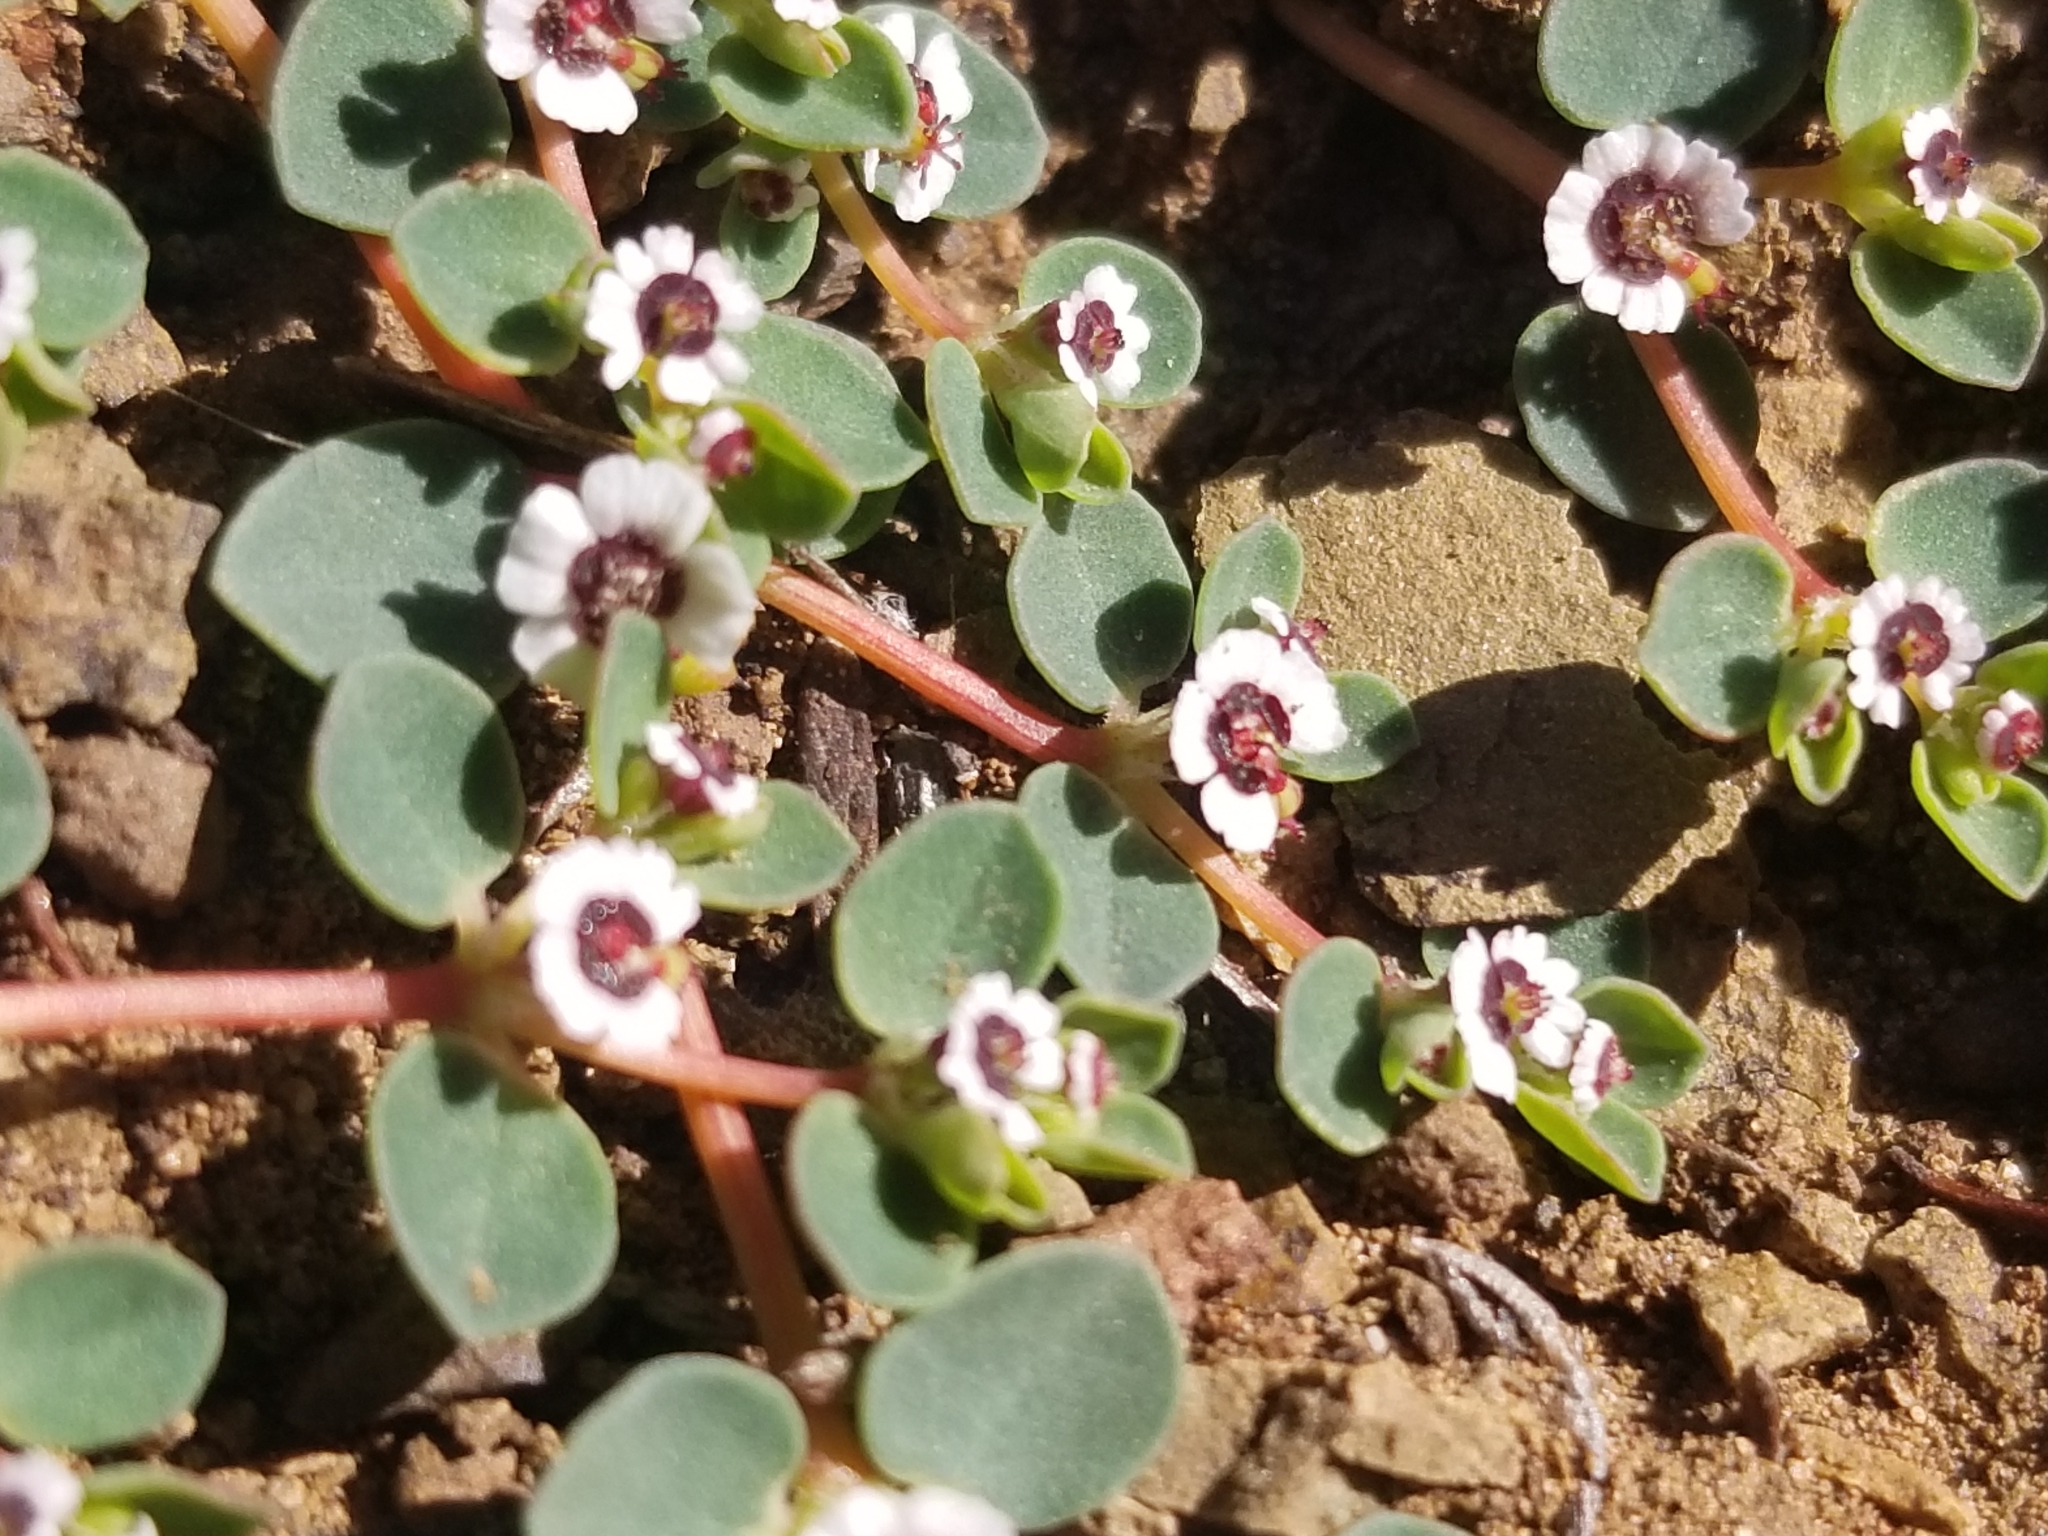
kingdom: Plantae
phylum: Tracheophyta
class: Magnoliopsida
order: Malpighiales
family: Euphorbiaceae
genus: Euphorbia
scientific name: Euphorbia polycarpa
